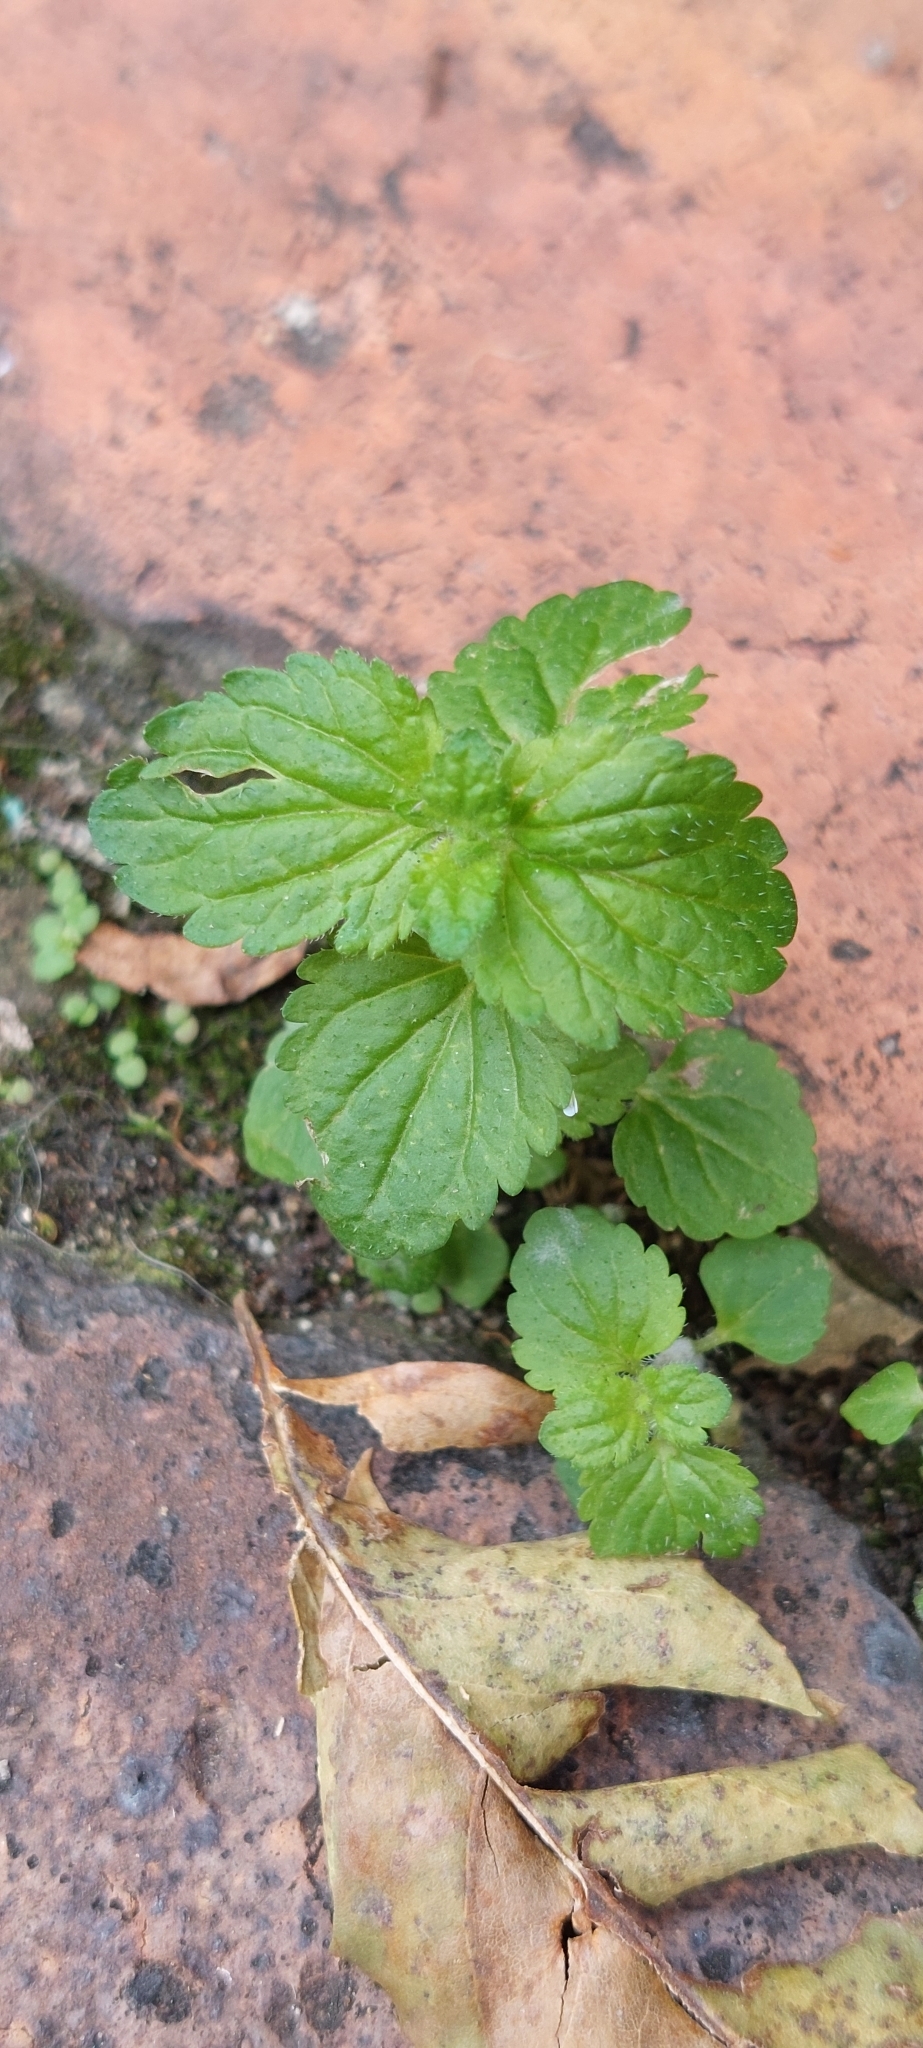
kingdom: Plantae
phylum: Tracheophyta
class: Magnoliopsida
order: Lamiales
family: Plantaginaceae
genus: Veronica
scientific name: Veronica javanica
